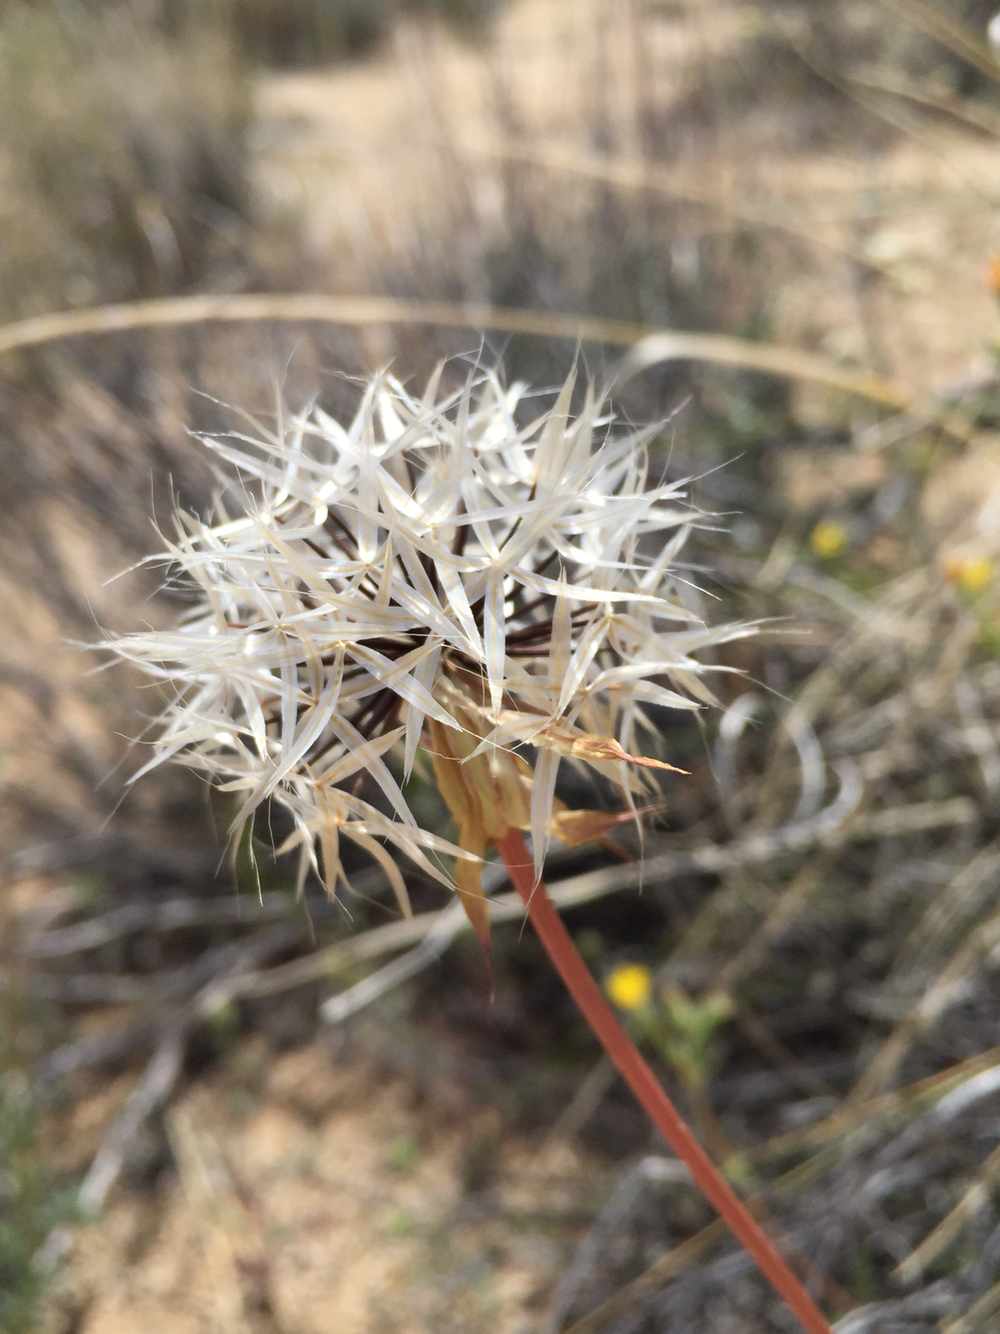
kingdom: Plantae
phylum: Tracheophyta
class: Magnoliopsida
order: Asterales
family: Asteraceae
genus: Microseris
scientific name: Microseris lindleyi
